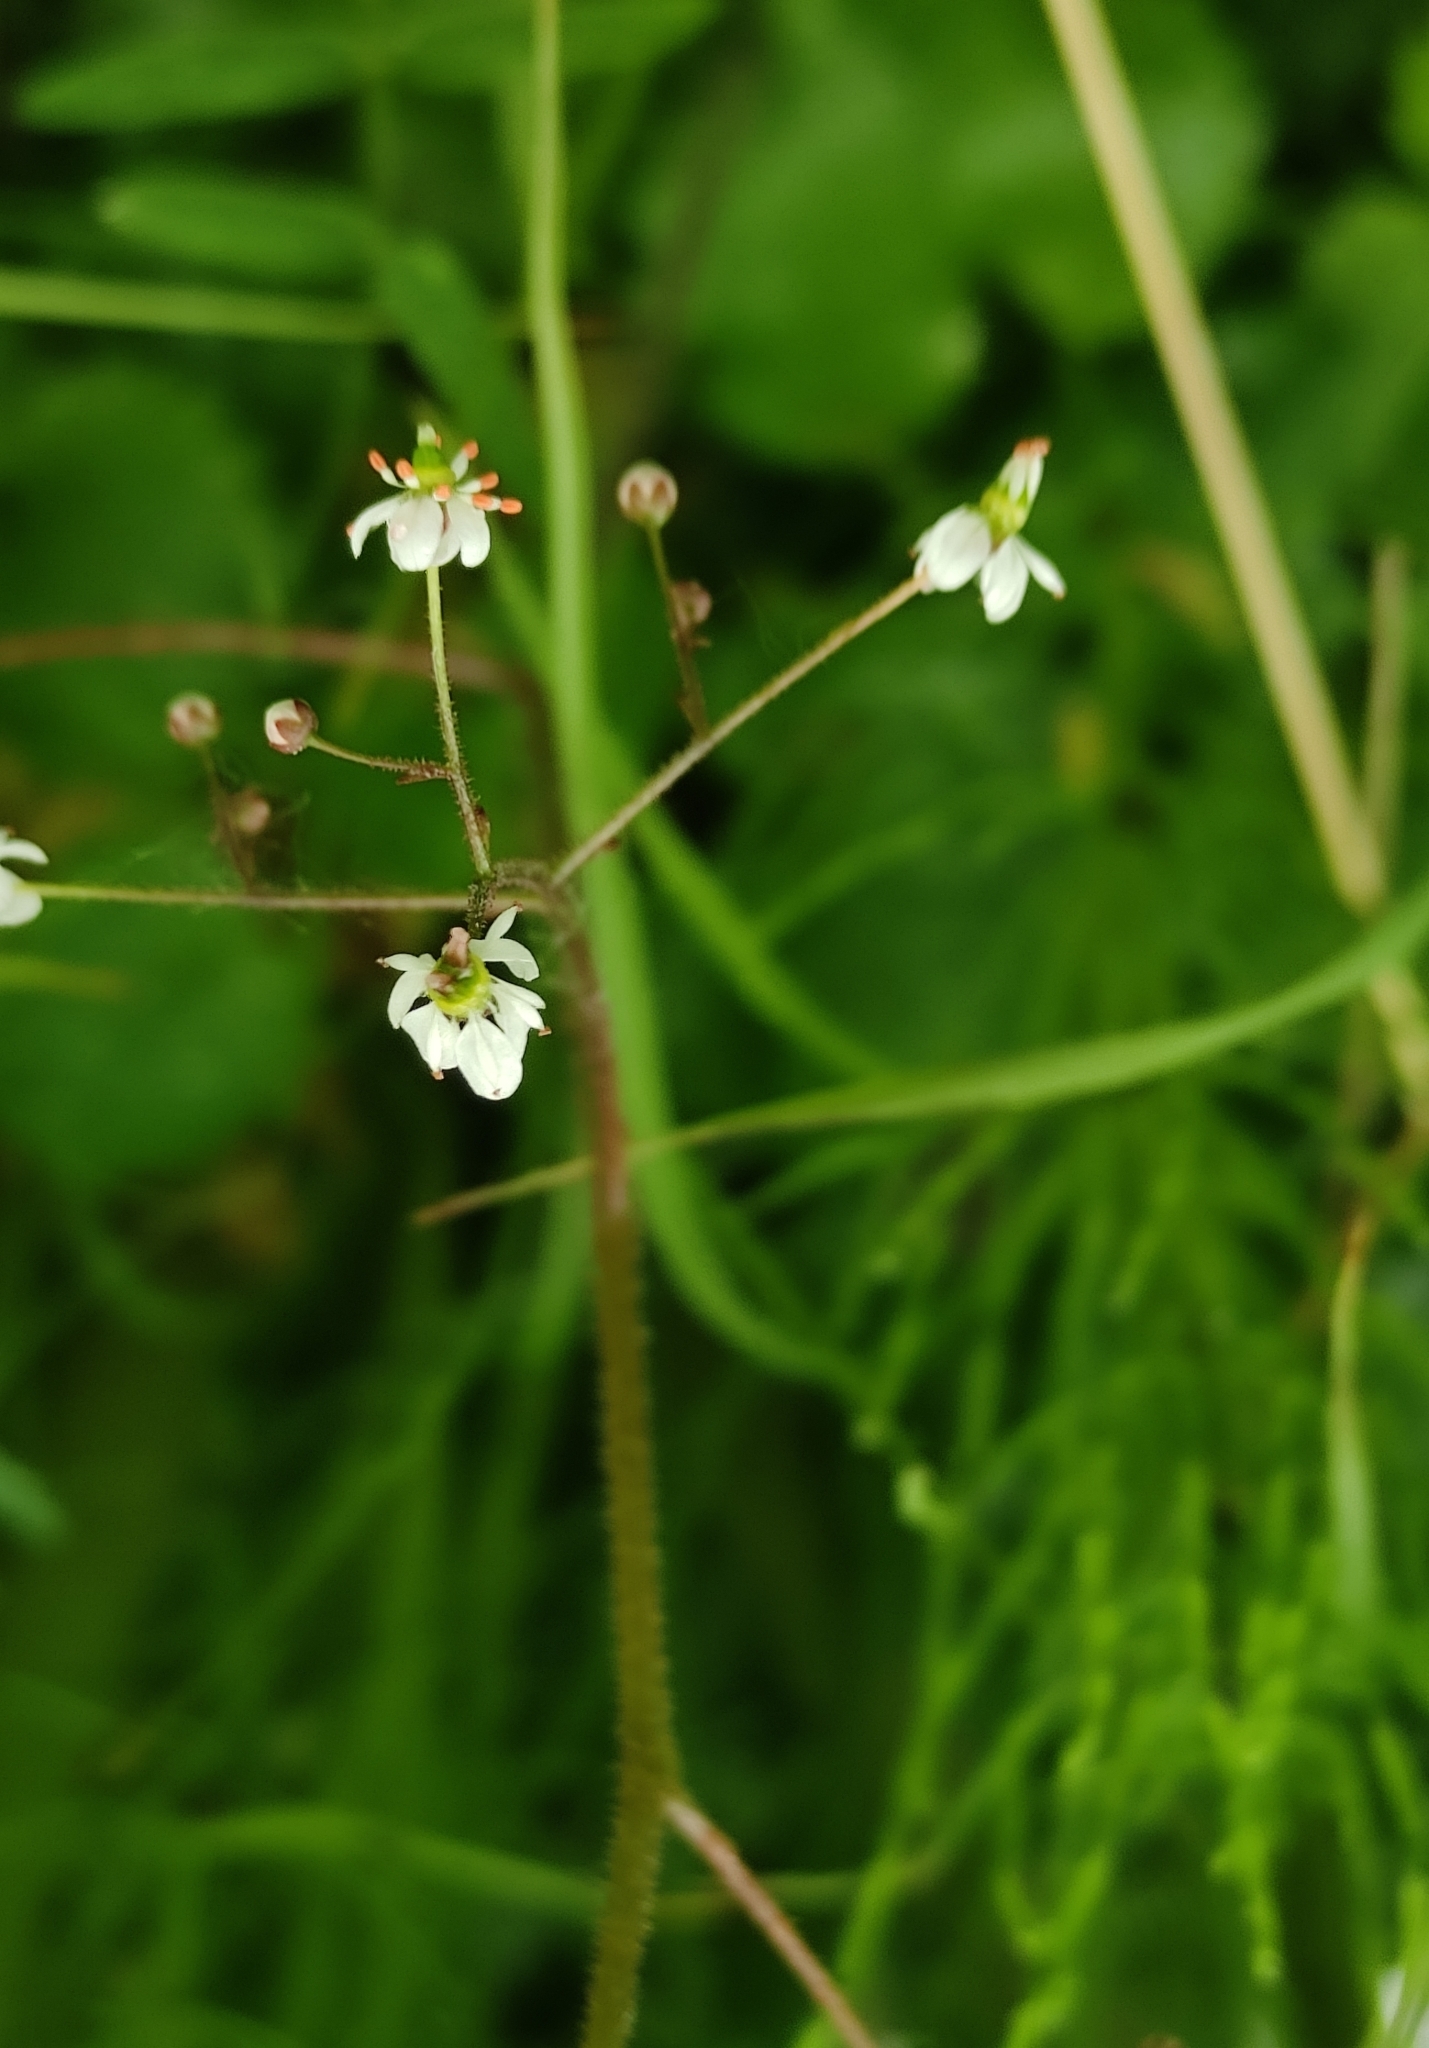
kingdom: Plantae
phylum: Tracheophyta
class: Magnoliopsida
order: Saxifragales
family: Saxifragaceae
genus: Micranthes
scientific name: Micranthes nelsoniana
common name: Nelson's saxifrage
